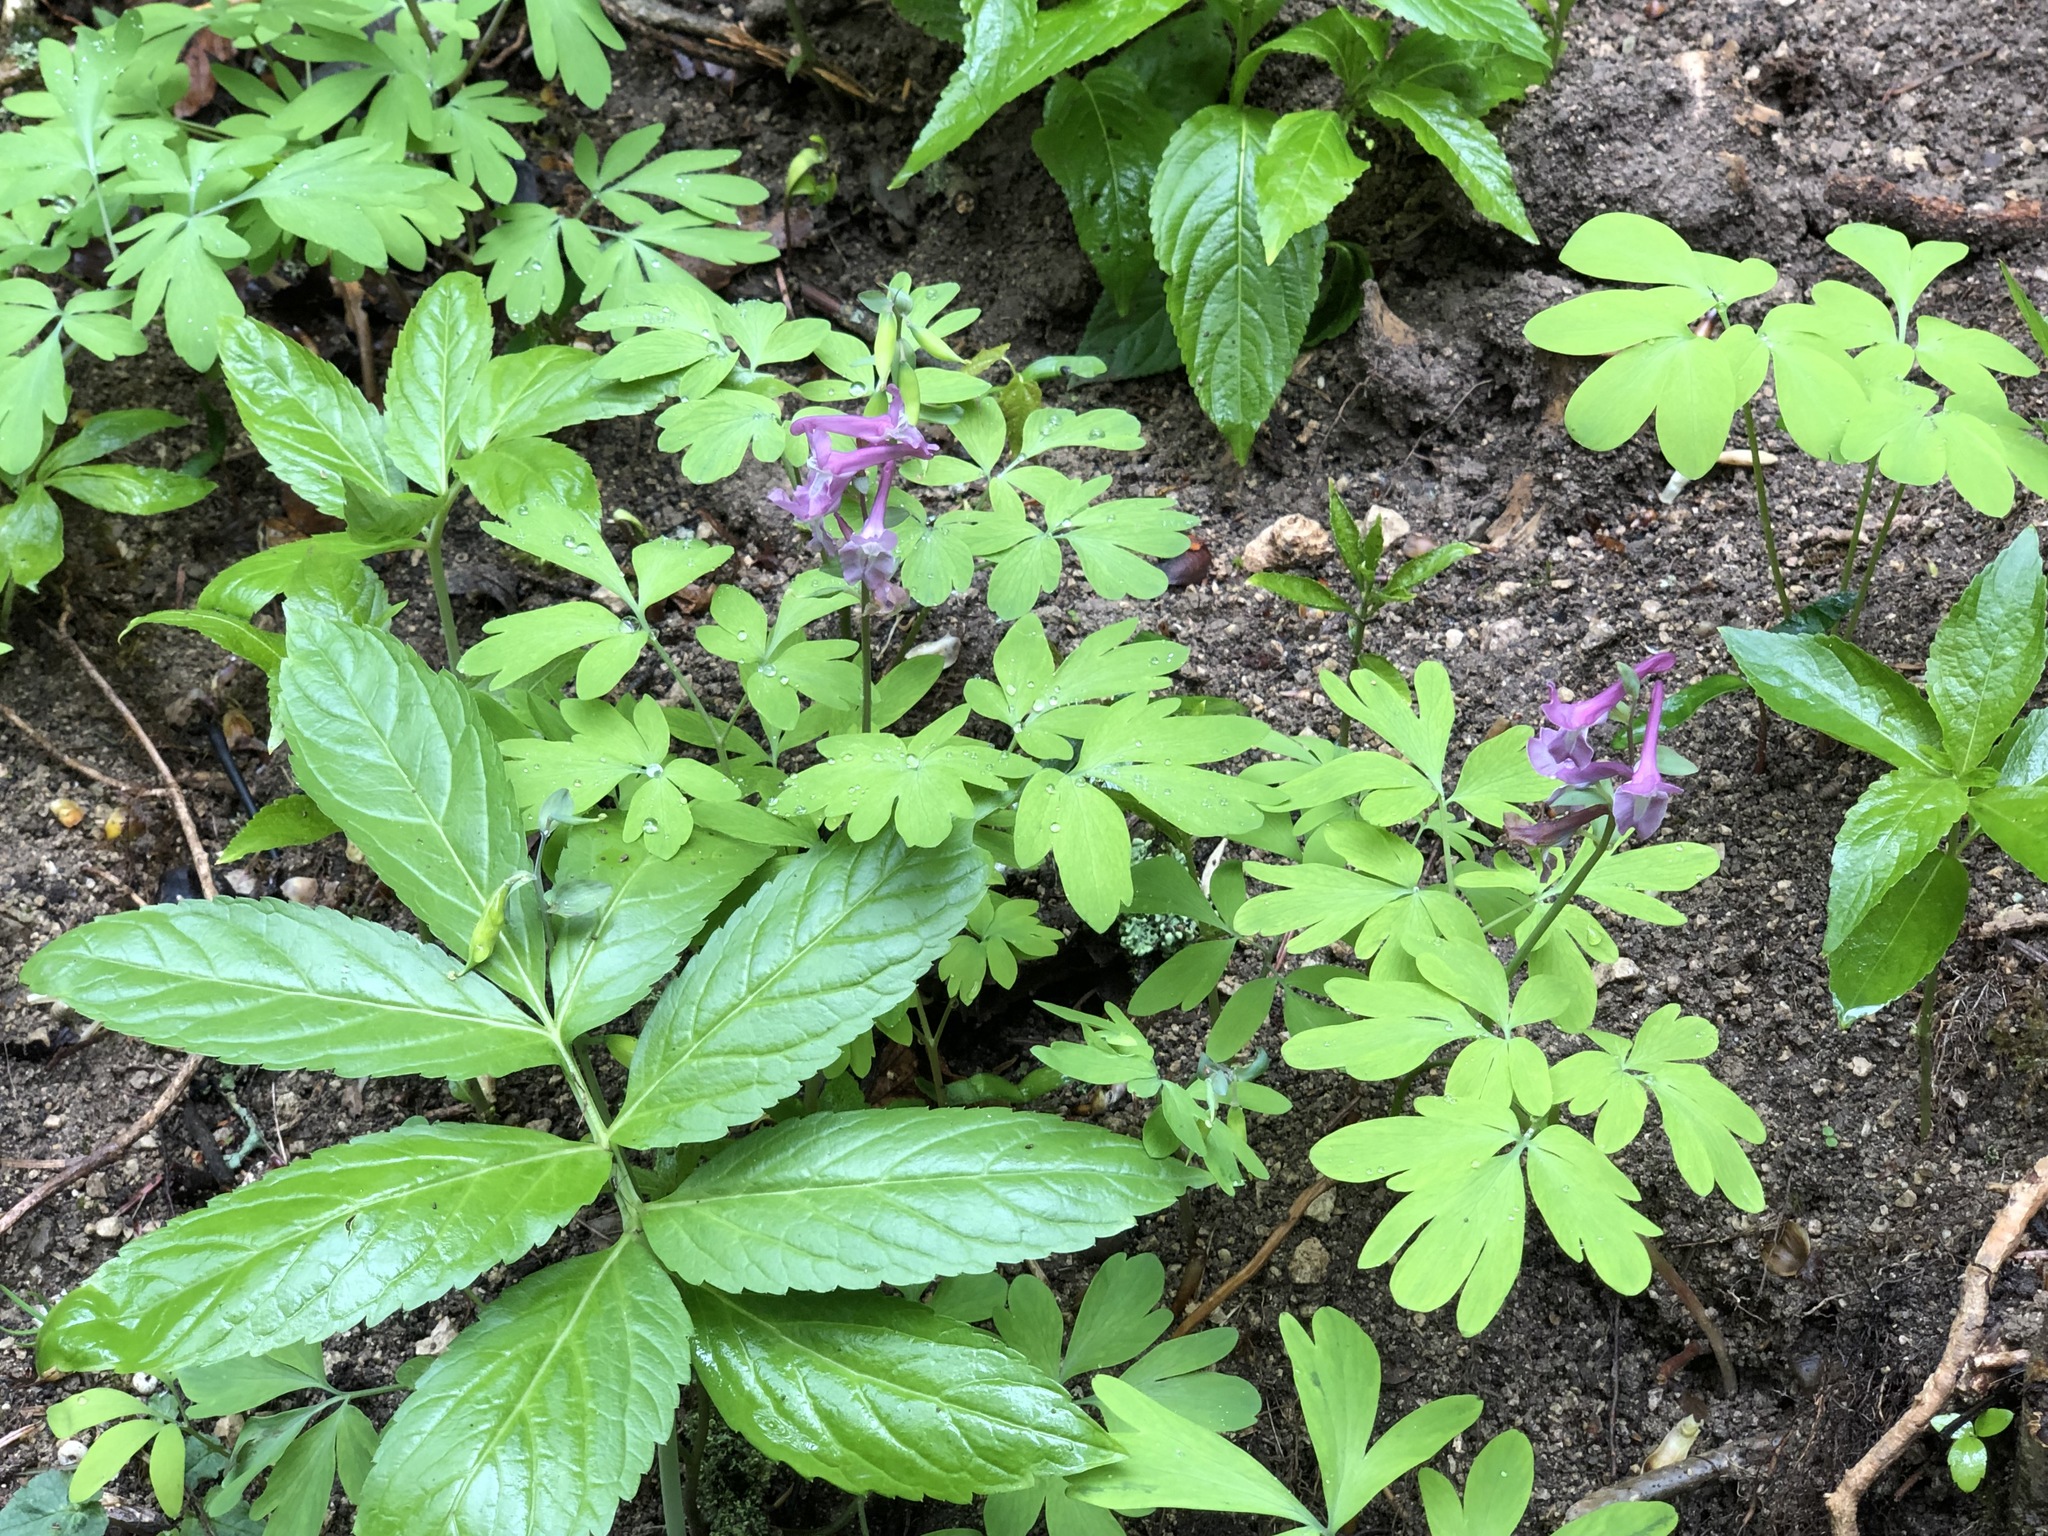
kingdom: Plantae
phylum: Tracheophyta
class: Magnoliopsida
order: Ranunculales
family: Papaveraceae
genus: Corydalis
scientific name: Corydalis cava
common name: Hollowroot
